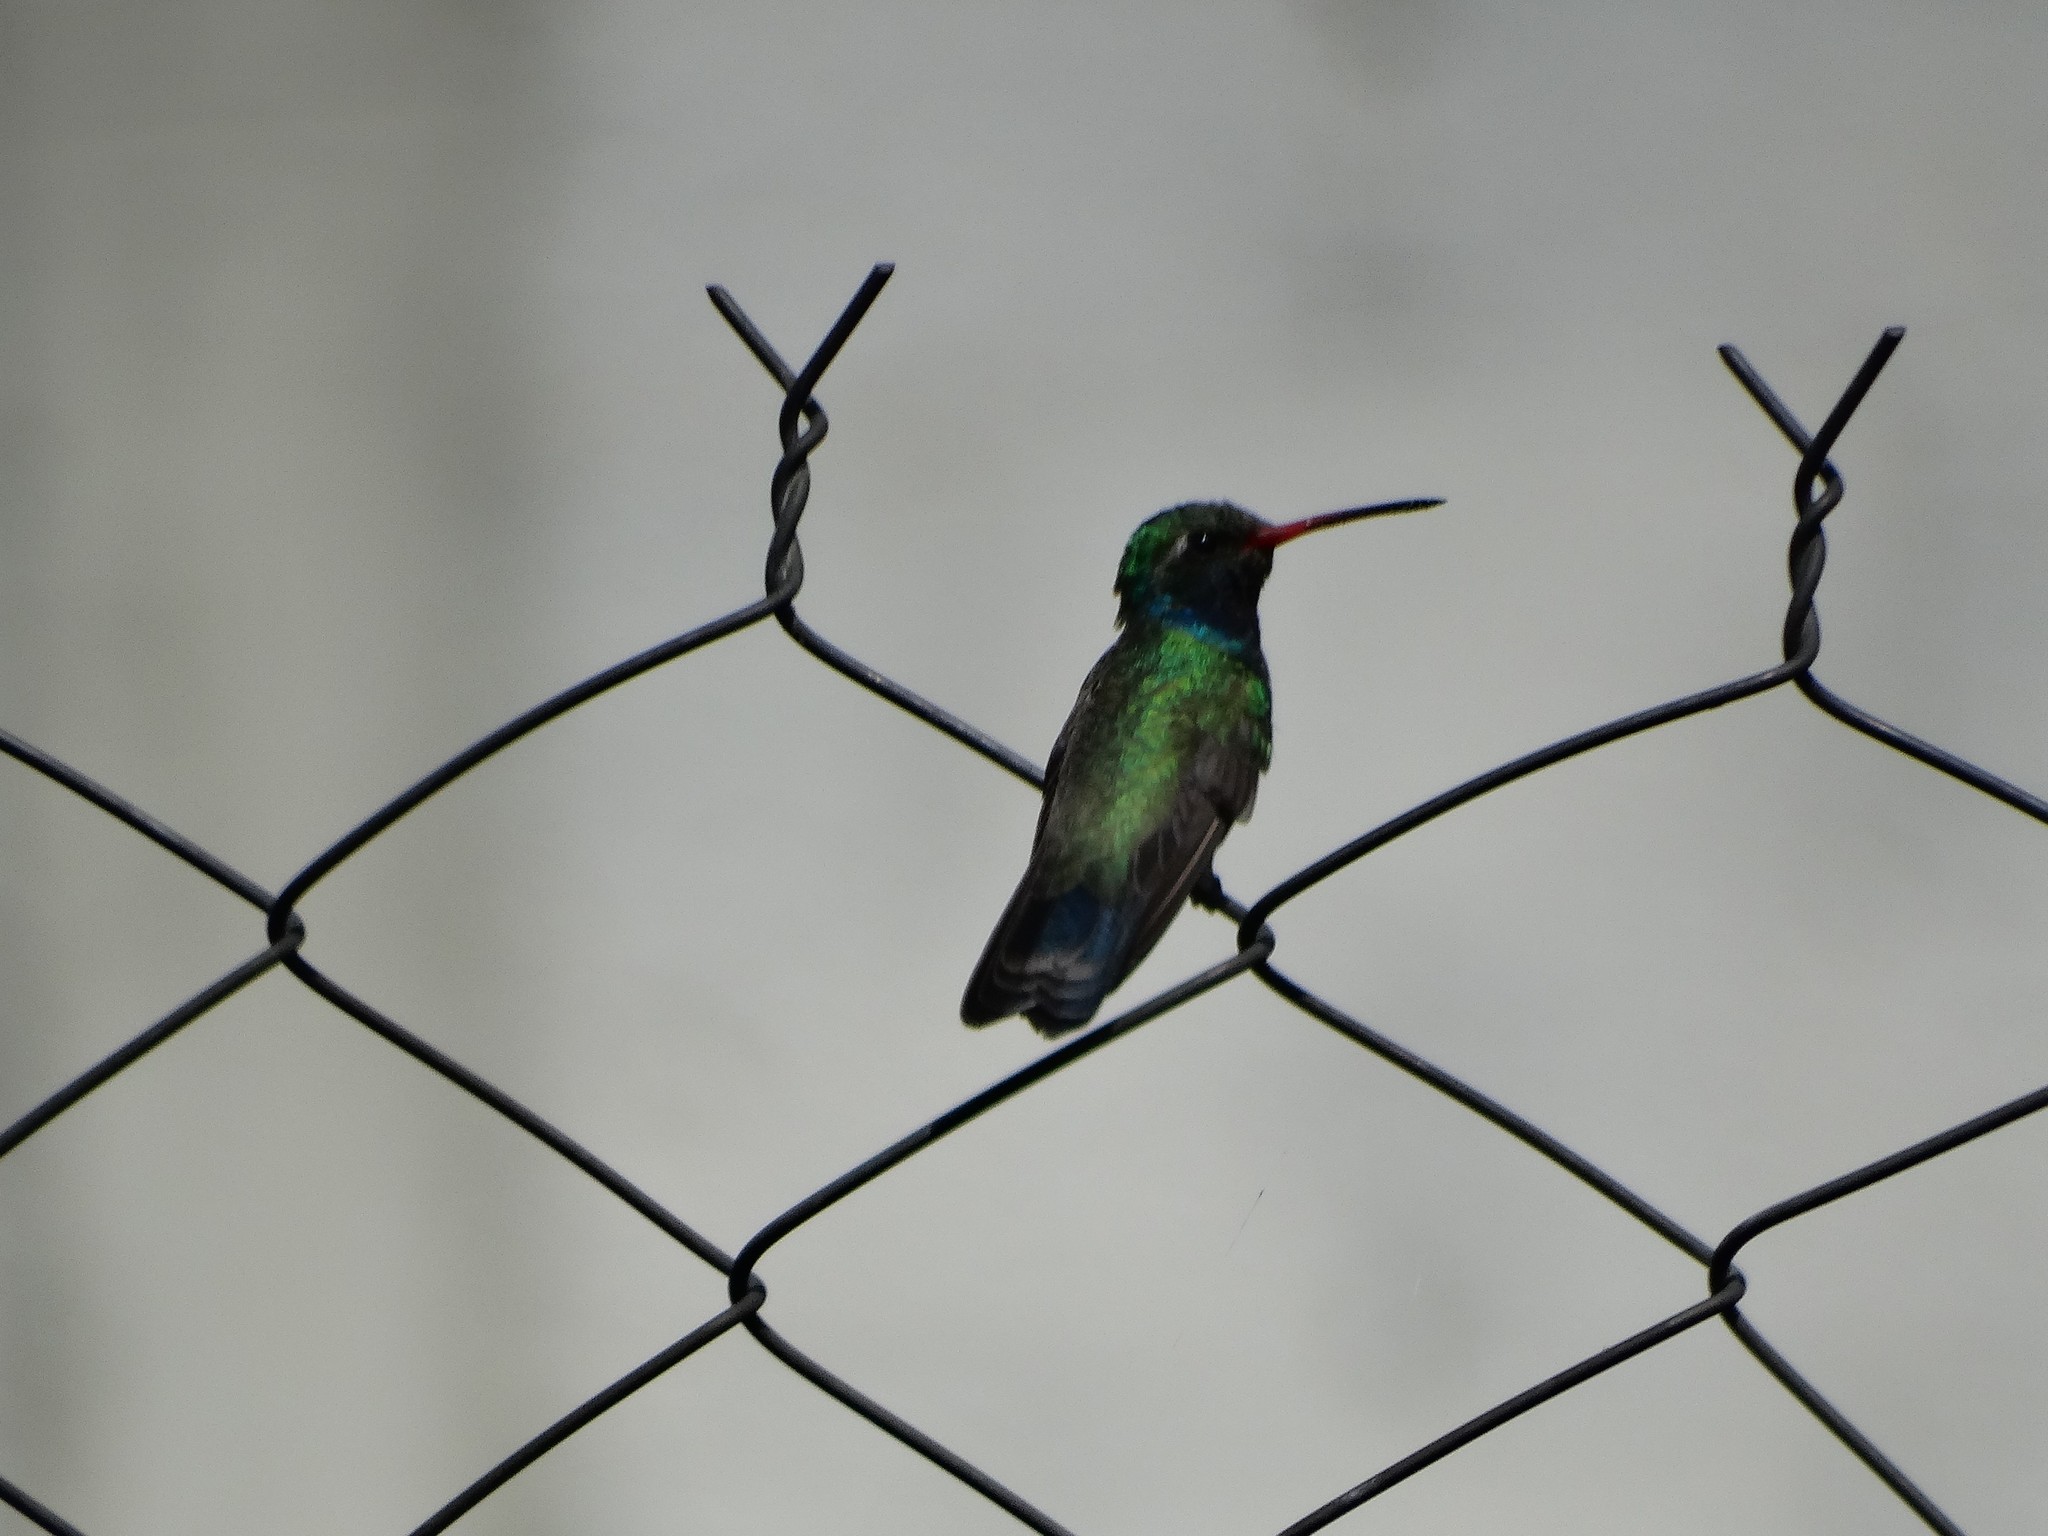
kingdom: Animalia
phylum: Chordata
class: Aves
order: Apodiformes
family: Trochilidae
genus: Cynanthus
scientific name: Cynanthus latirostris
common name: Broad-billed hummingbird
